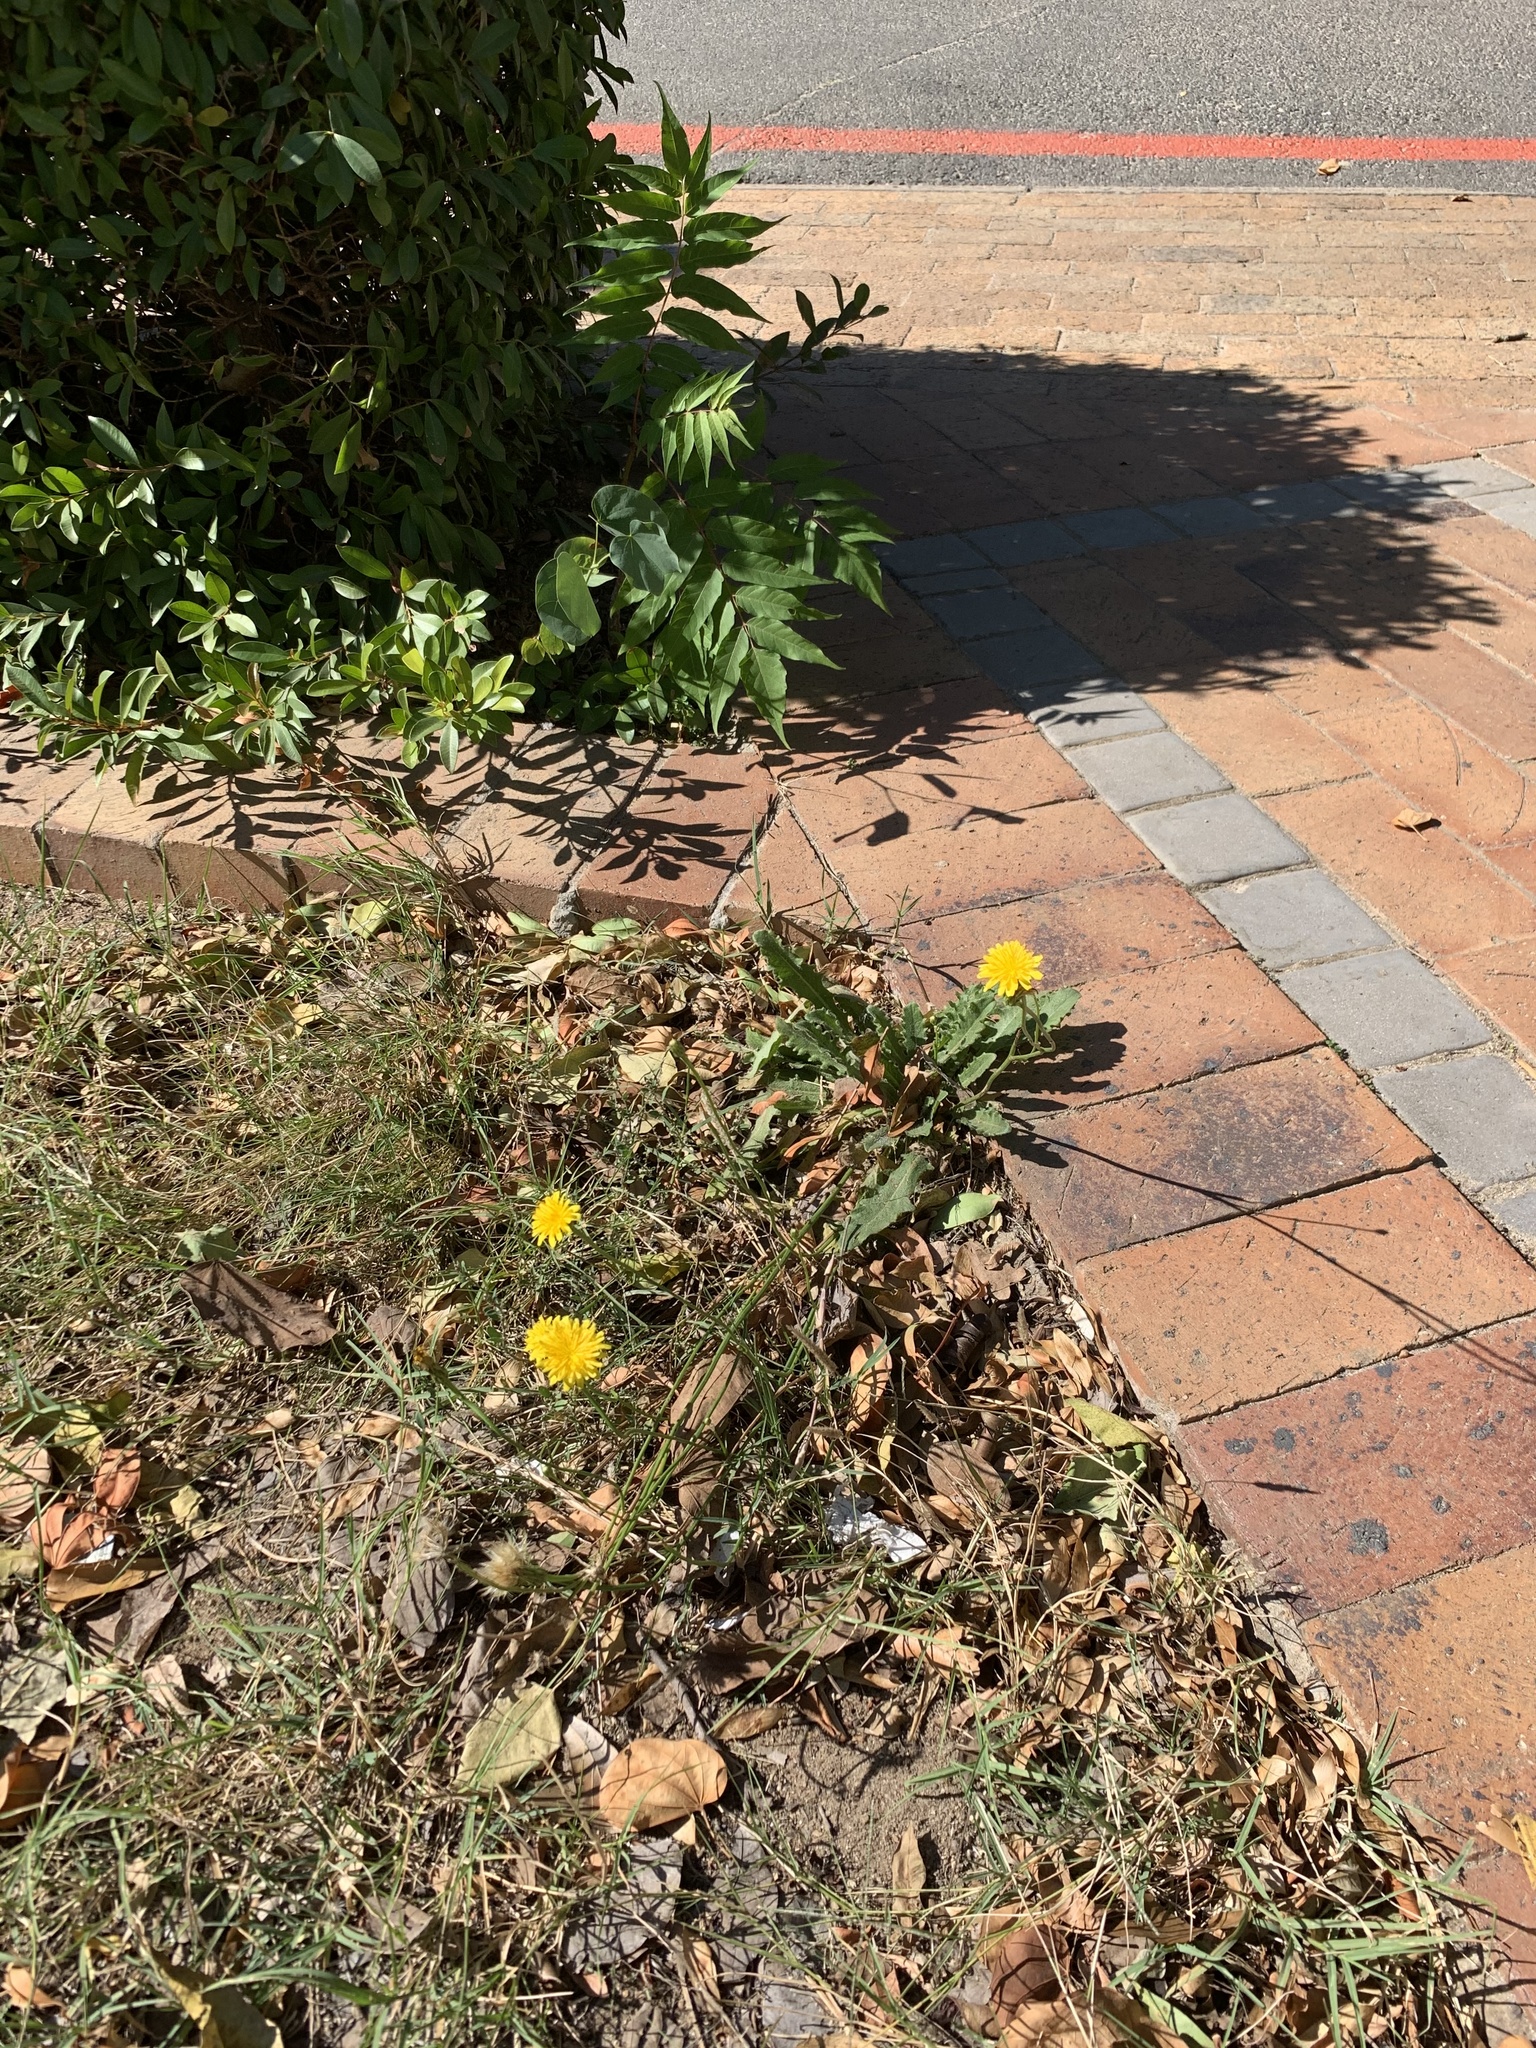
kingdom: Plantae
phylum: Tracheophyta
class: Magnoliopsida
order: Asterales
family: Asteraceae
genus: Hypochaeris
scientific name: Hypochaeris radicata
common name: Flatweed
